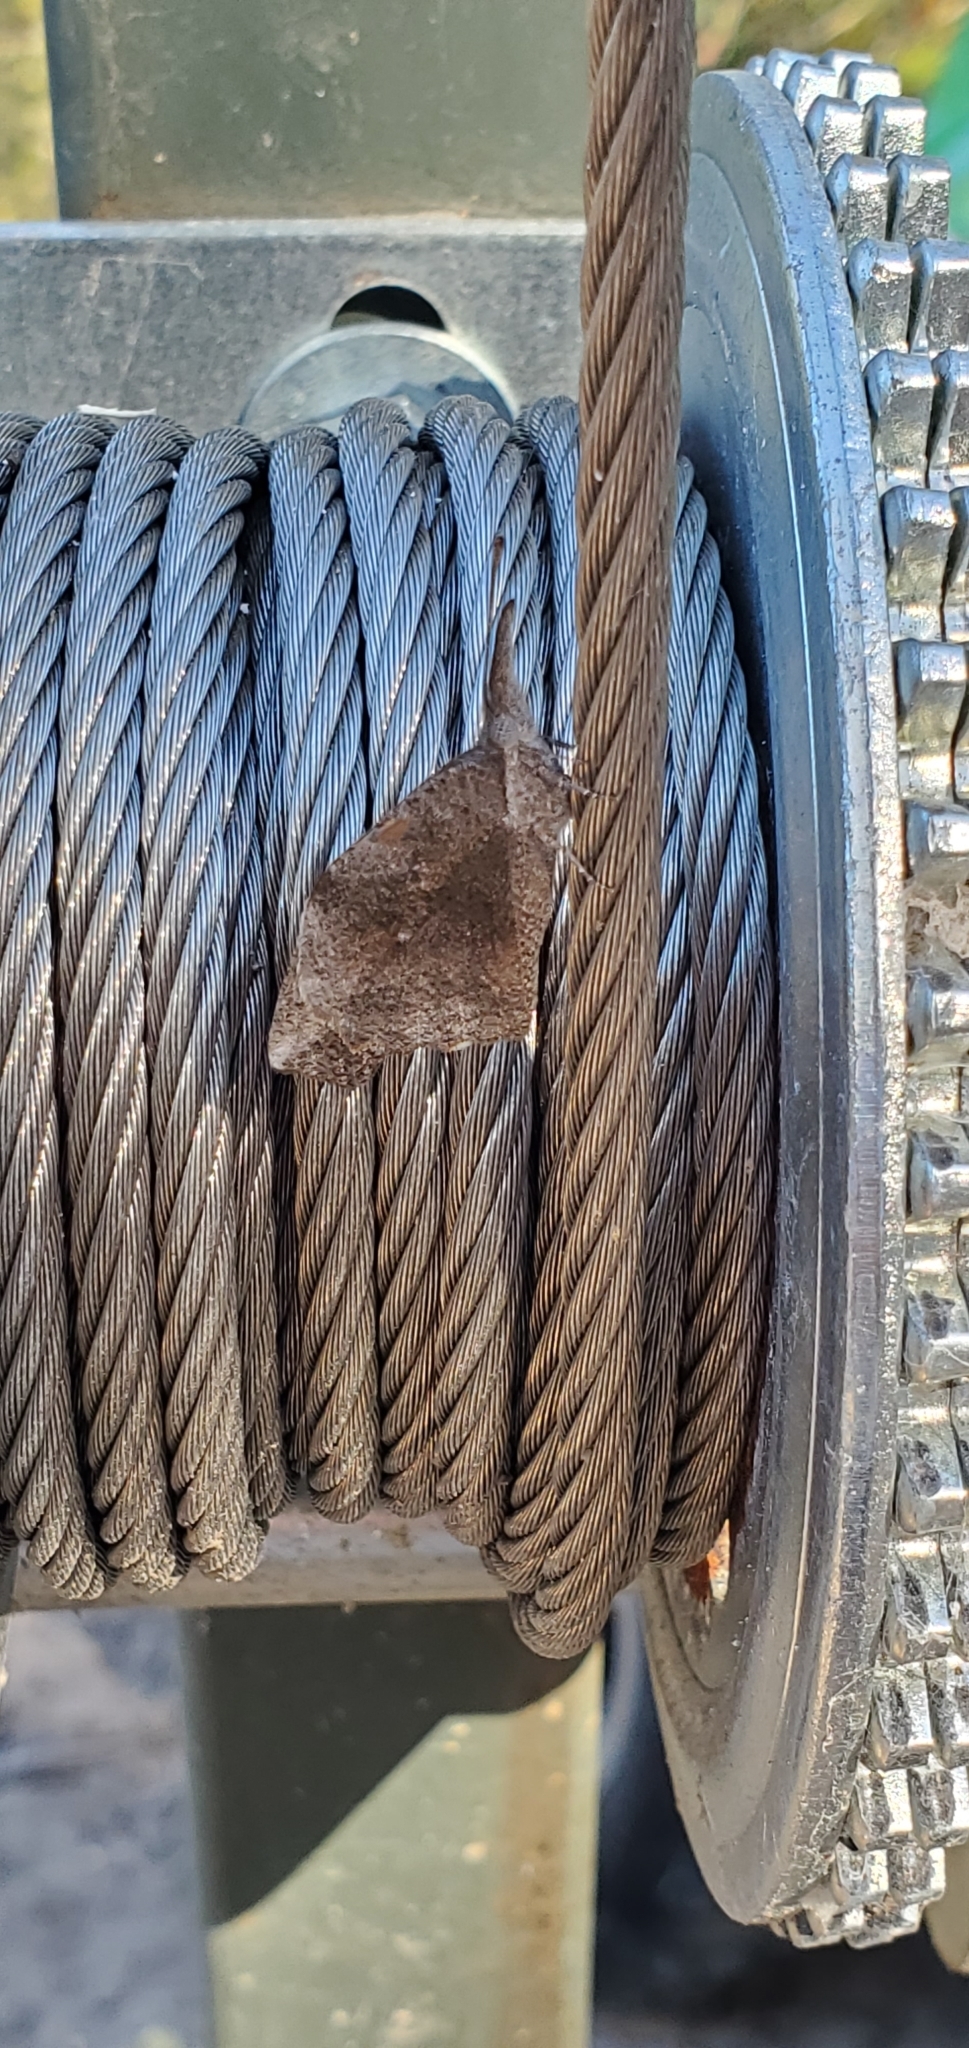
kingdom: Animalia
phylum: Arthropoda
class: Insecta
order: Lepidoptera
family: Nymphalidae
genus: Libytheana
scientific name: Libytheana carinenta
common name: American snout
